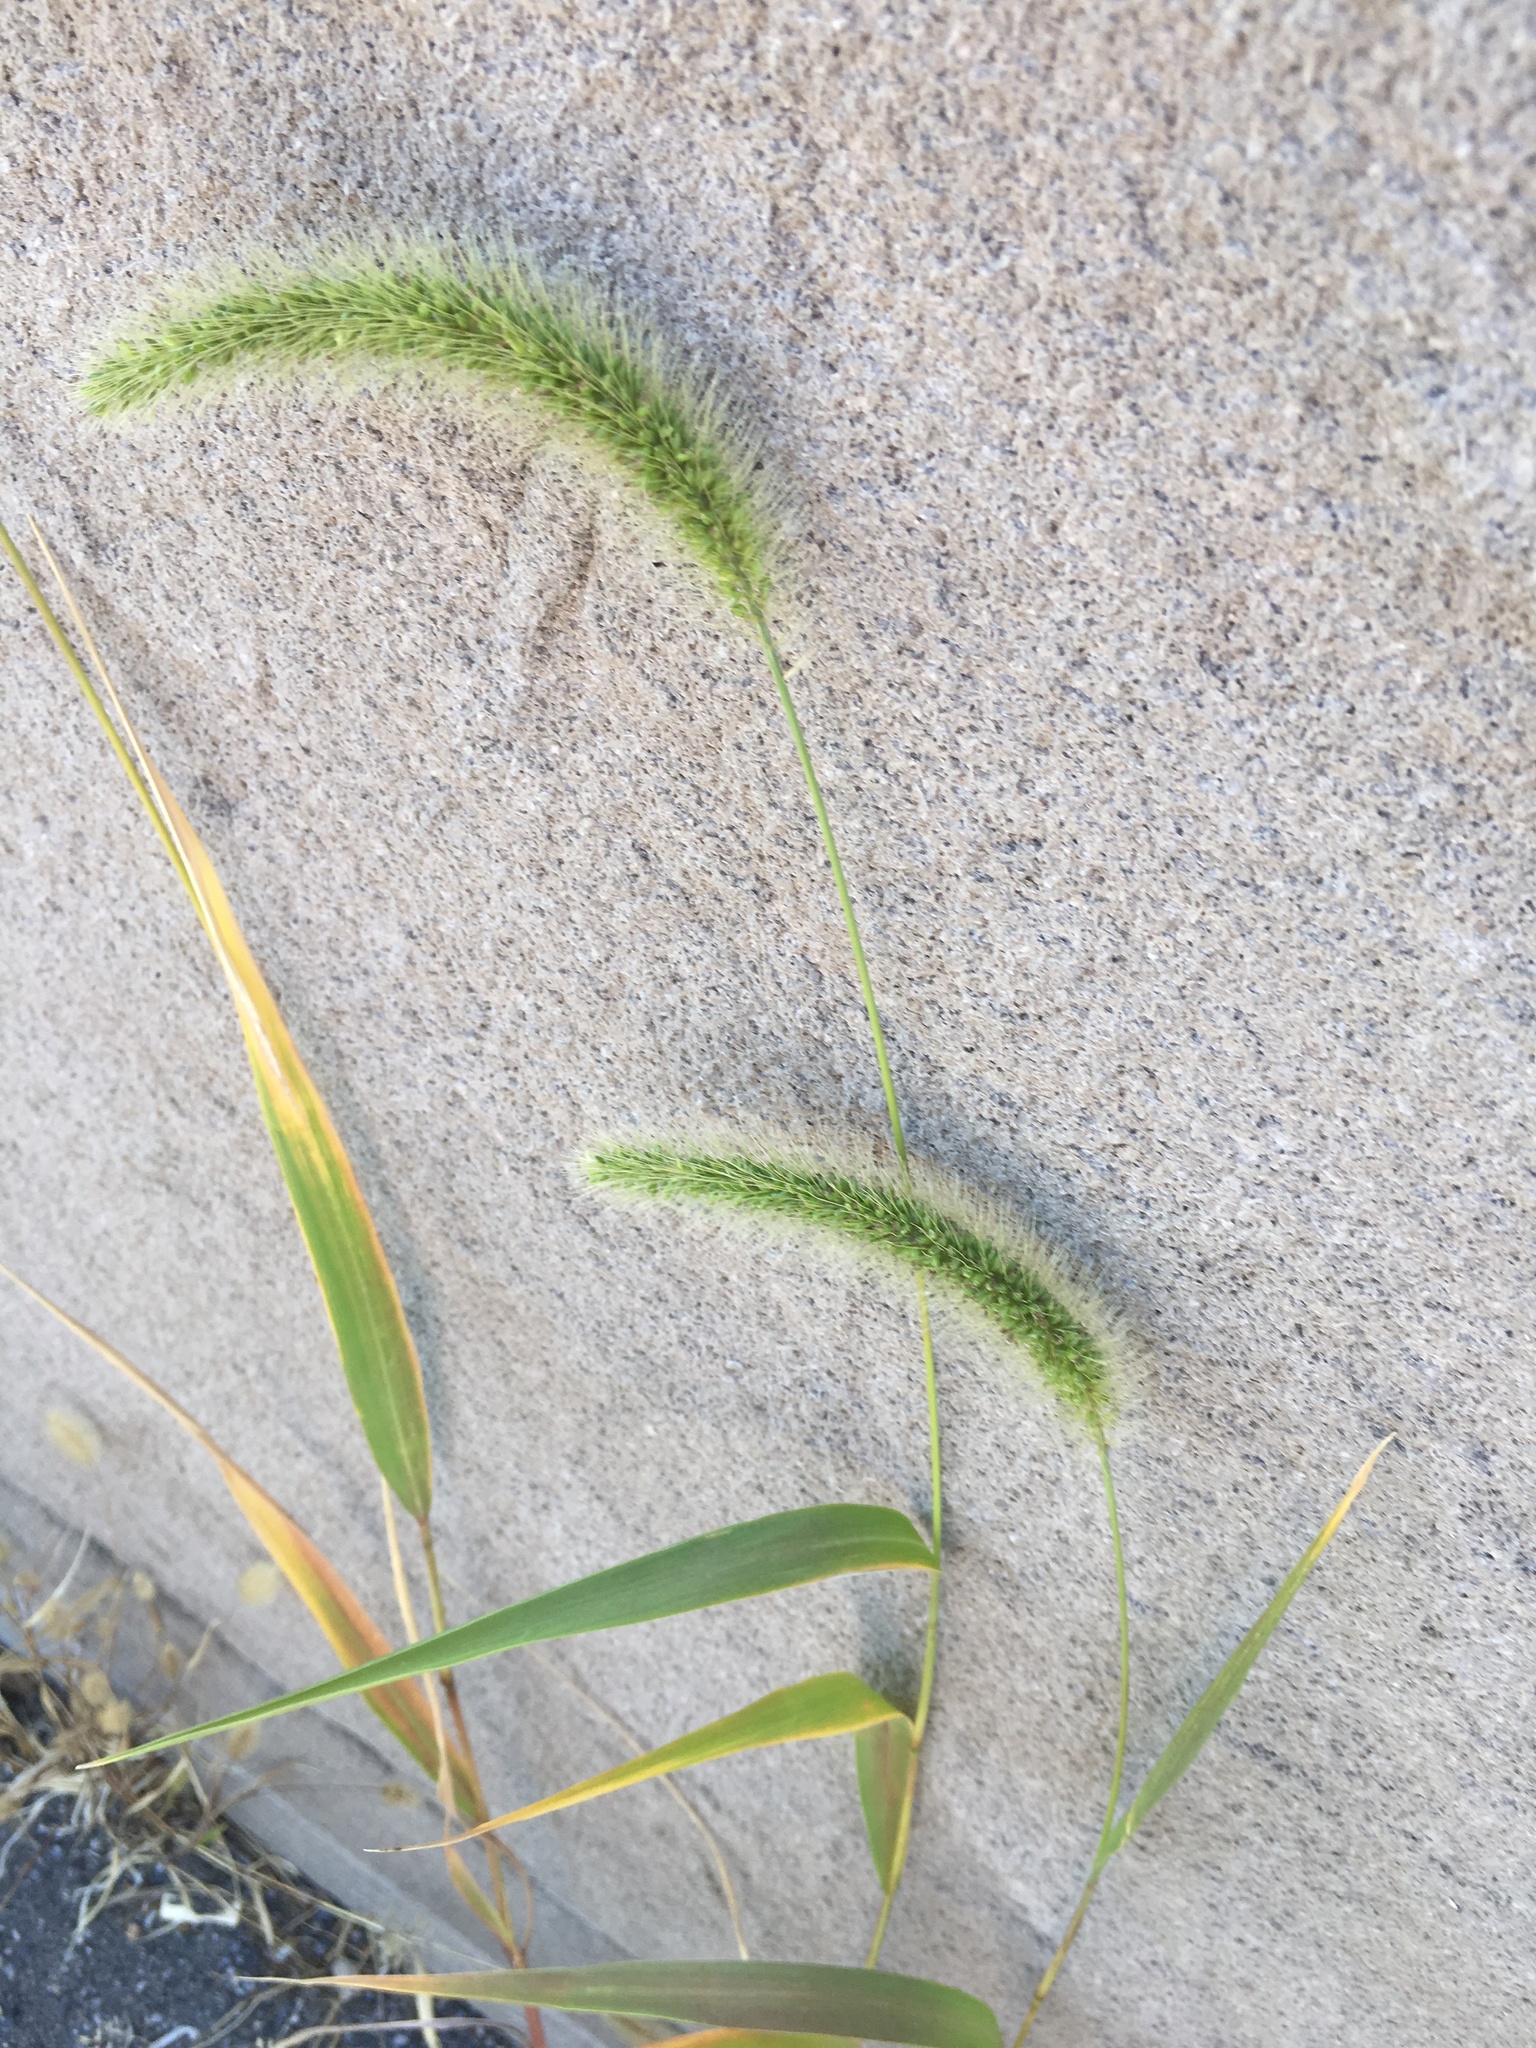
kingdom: Plantae
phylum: Tracheophyta
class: Liliopsida
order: Poales
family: Poaceae
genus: Setaria
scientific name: Setaria faberi
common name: Nodding bristle-grass
